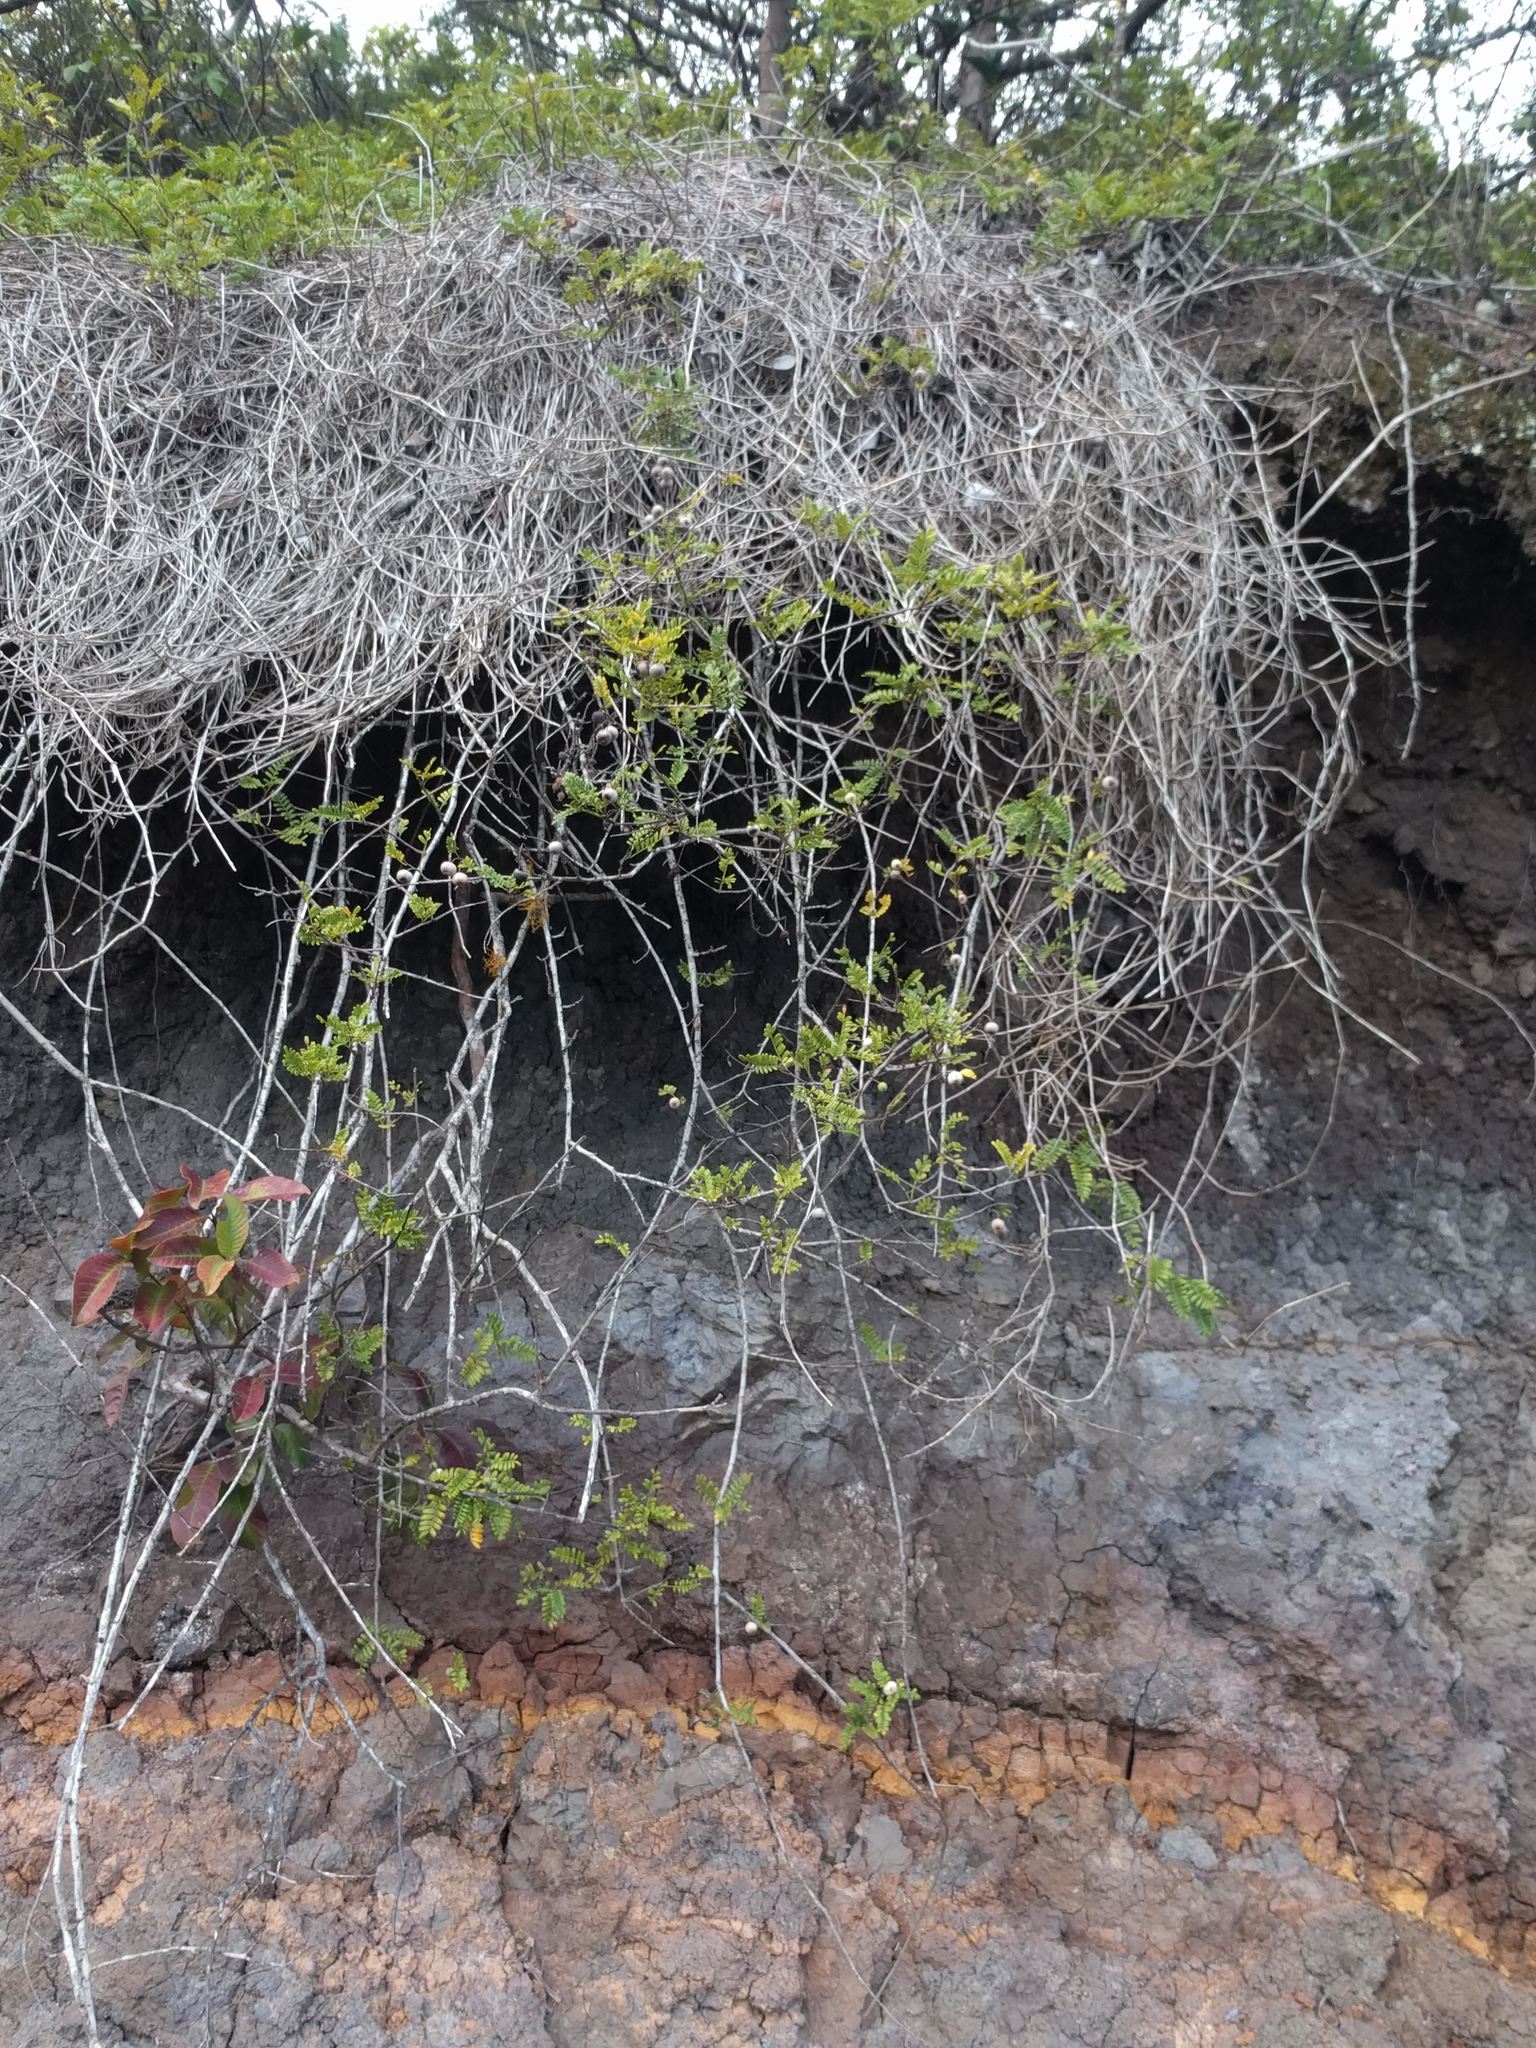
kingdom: Plantae
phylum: Tracheophyta
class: Magnoliopsida
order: Rosales
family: Rosaceae
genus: Osteomeles
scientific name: Osteomeles anthyllidifolia
